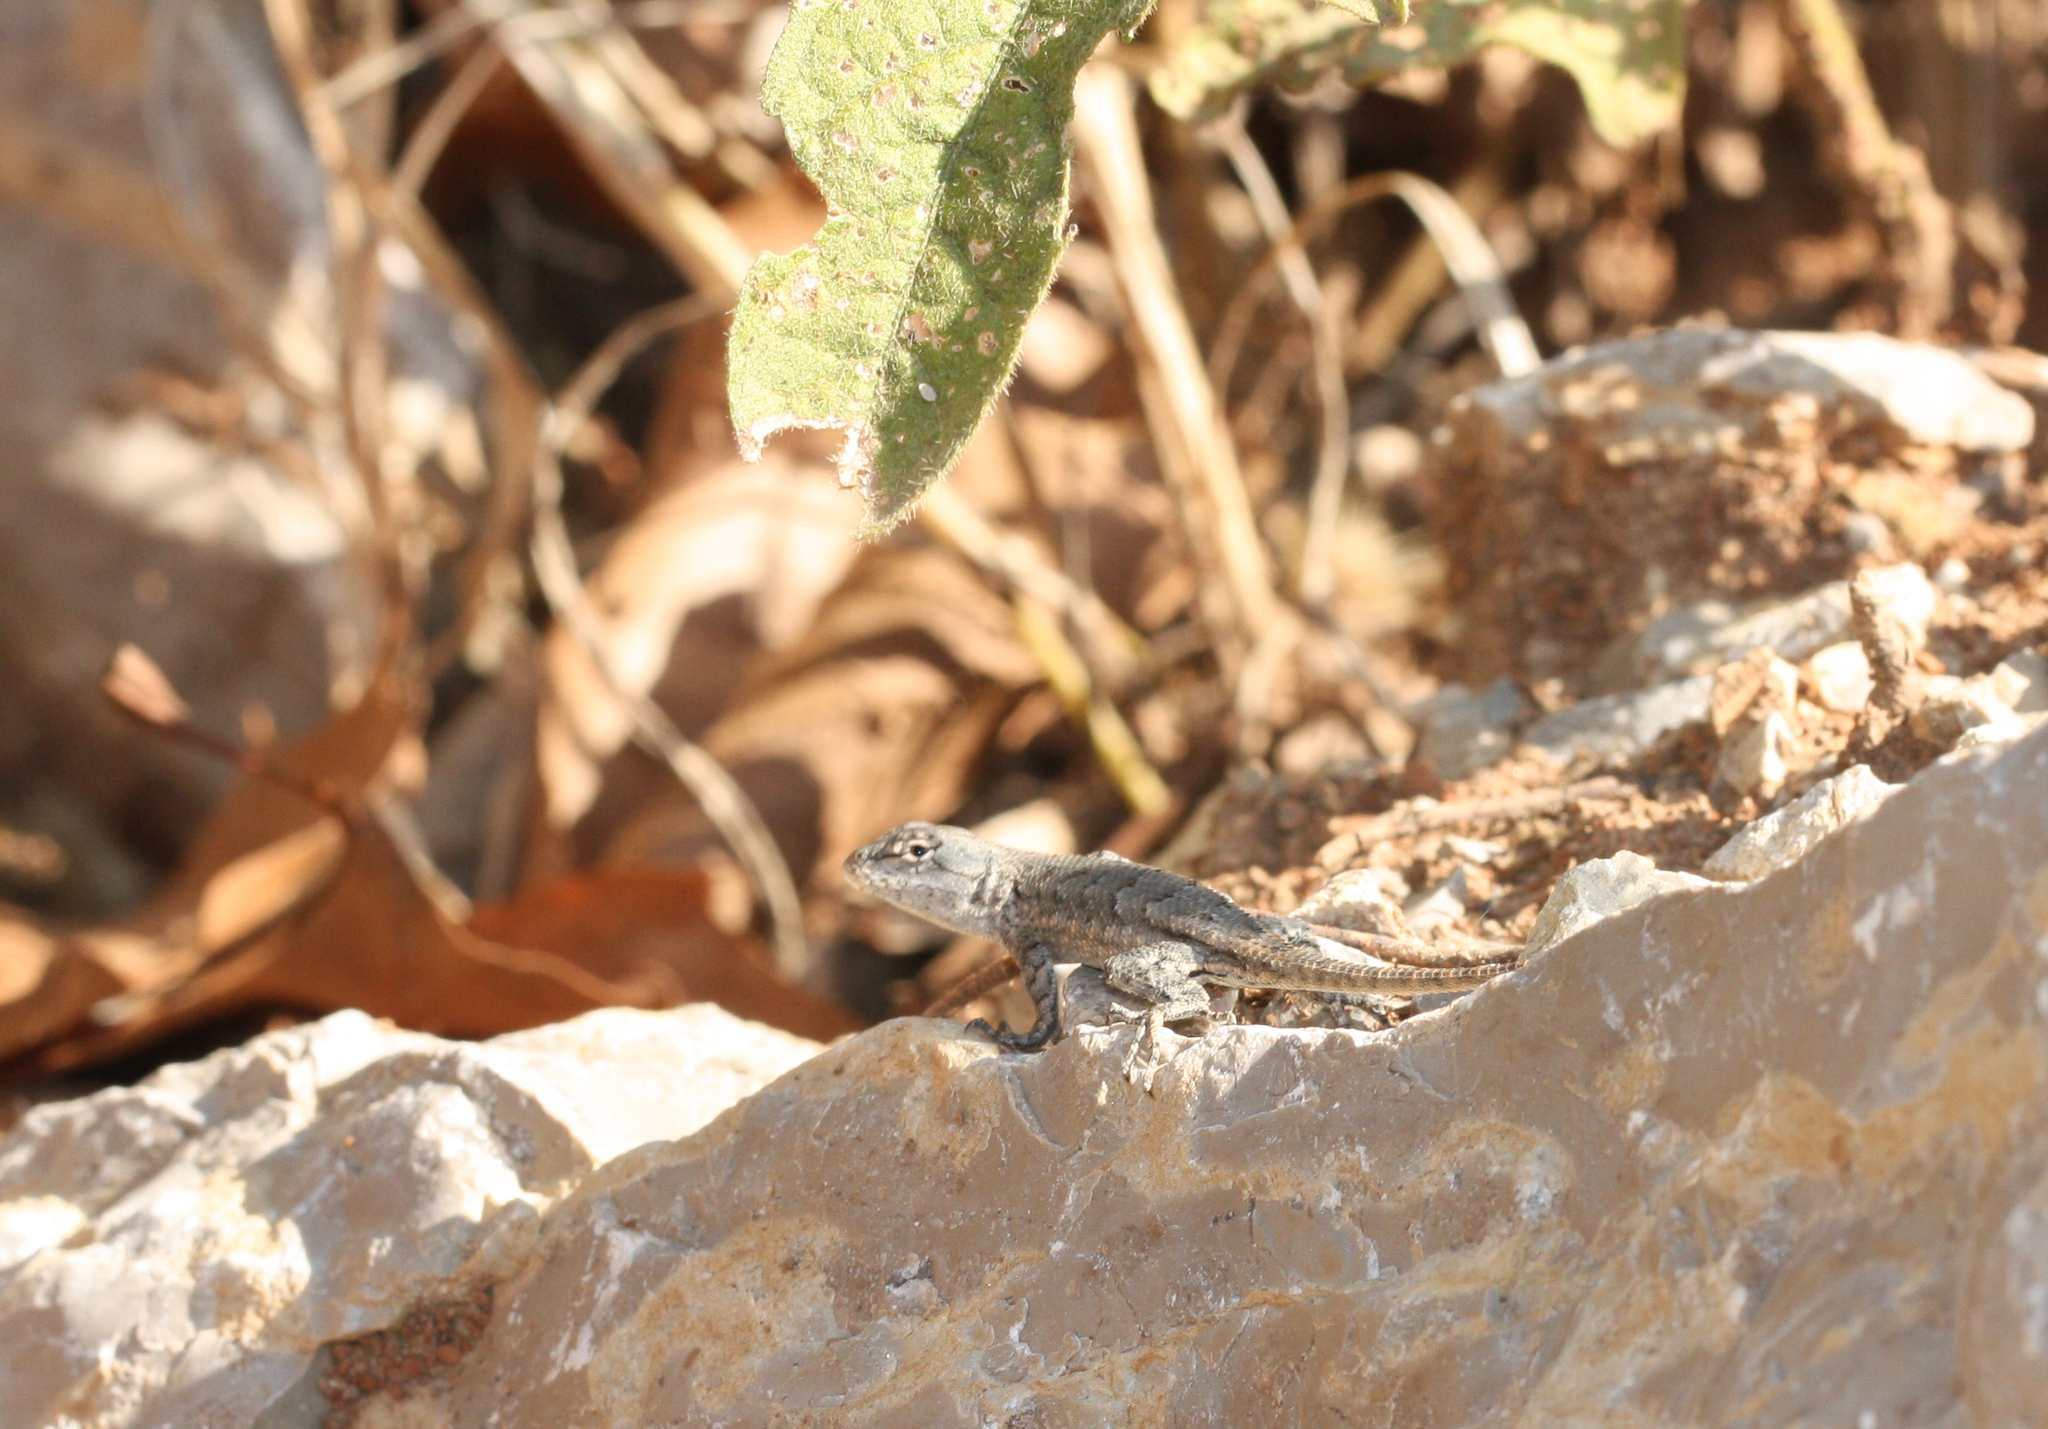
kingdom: Animalia
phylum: Chordata
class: Squamata
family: Phrynosomatidae
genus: Sceloporus
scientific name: Sceloporus consobrinus
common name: Southern prairie lizard
